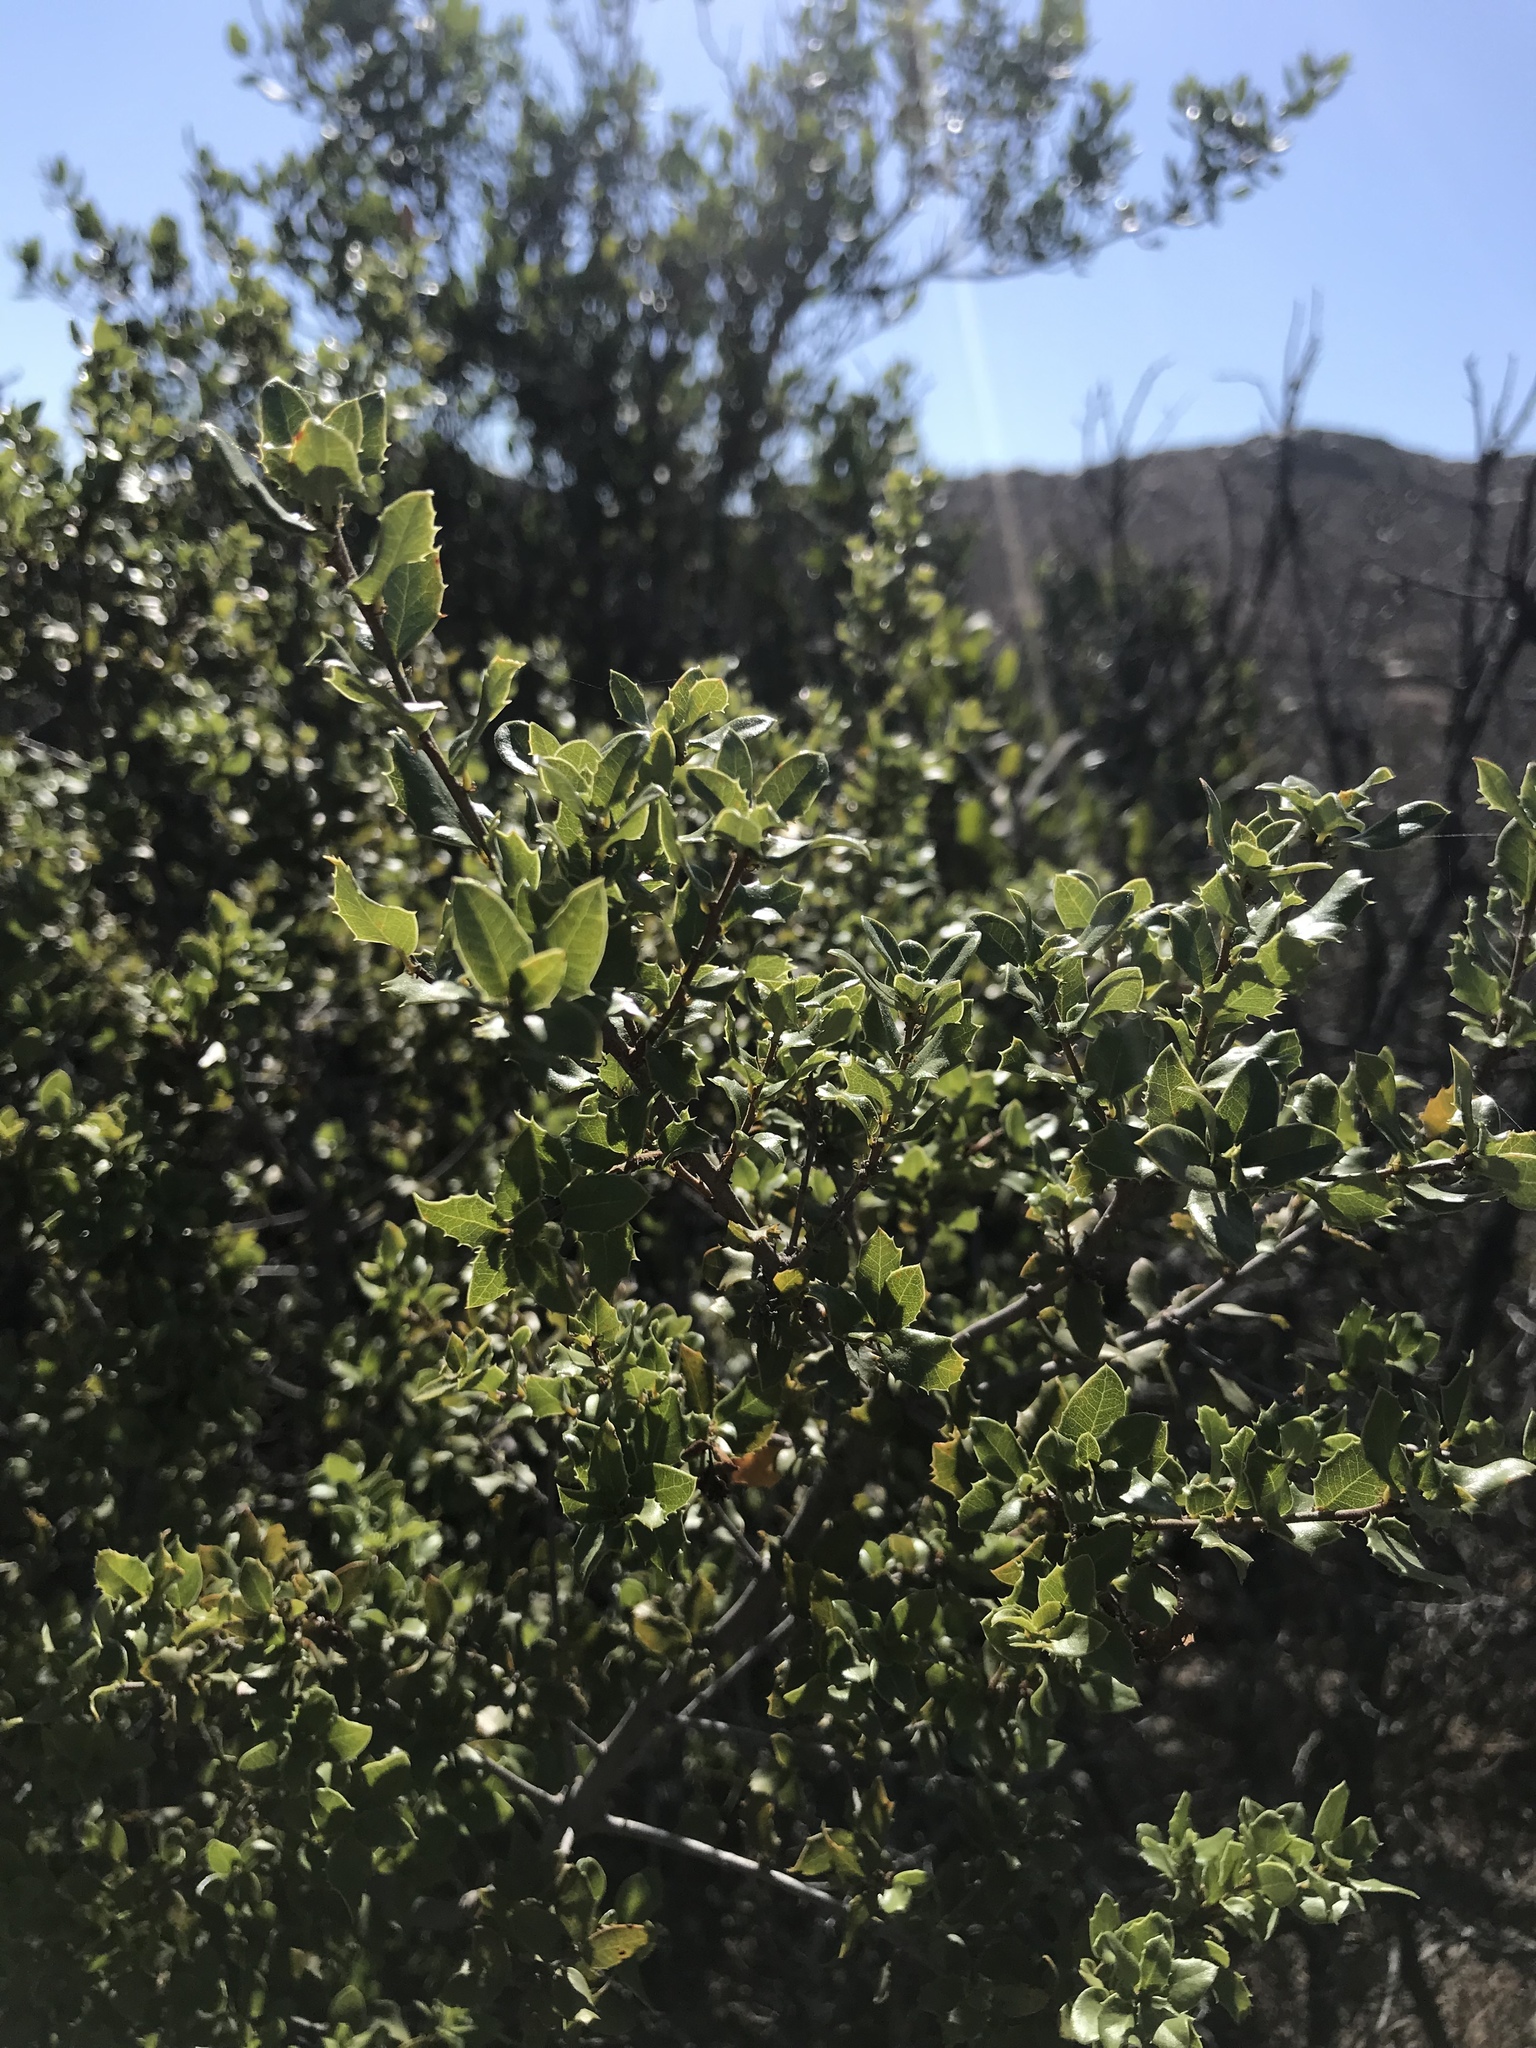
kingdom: Plantae
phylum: Tracheophyta
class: Magnoliopsida
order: Fagales
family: Fagaceae
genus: Quercus
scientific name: Quercus chrysolepis
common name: Canyon live oak
